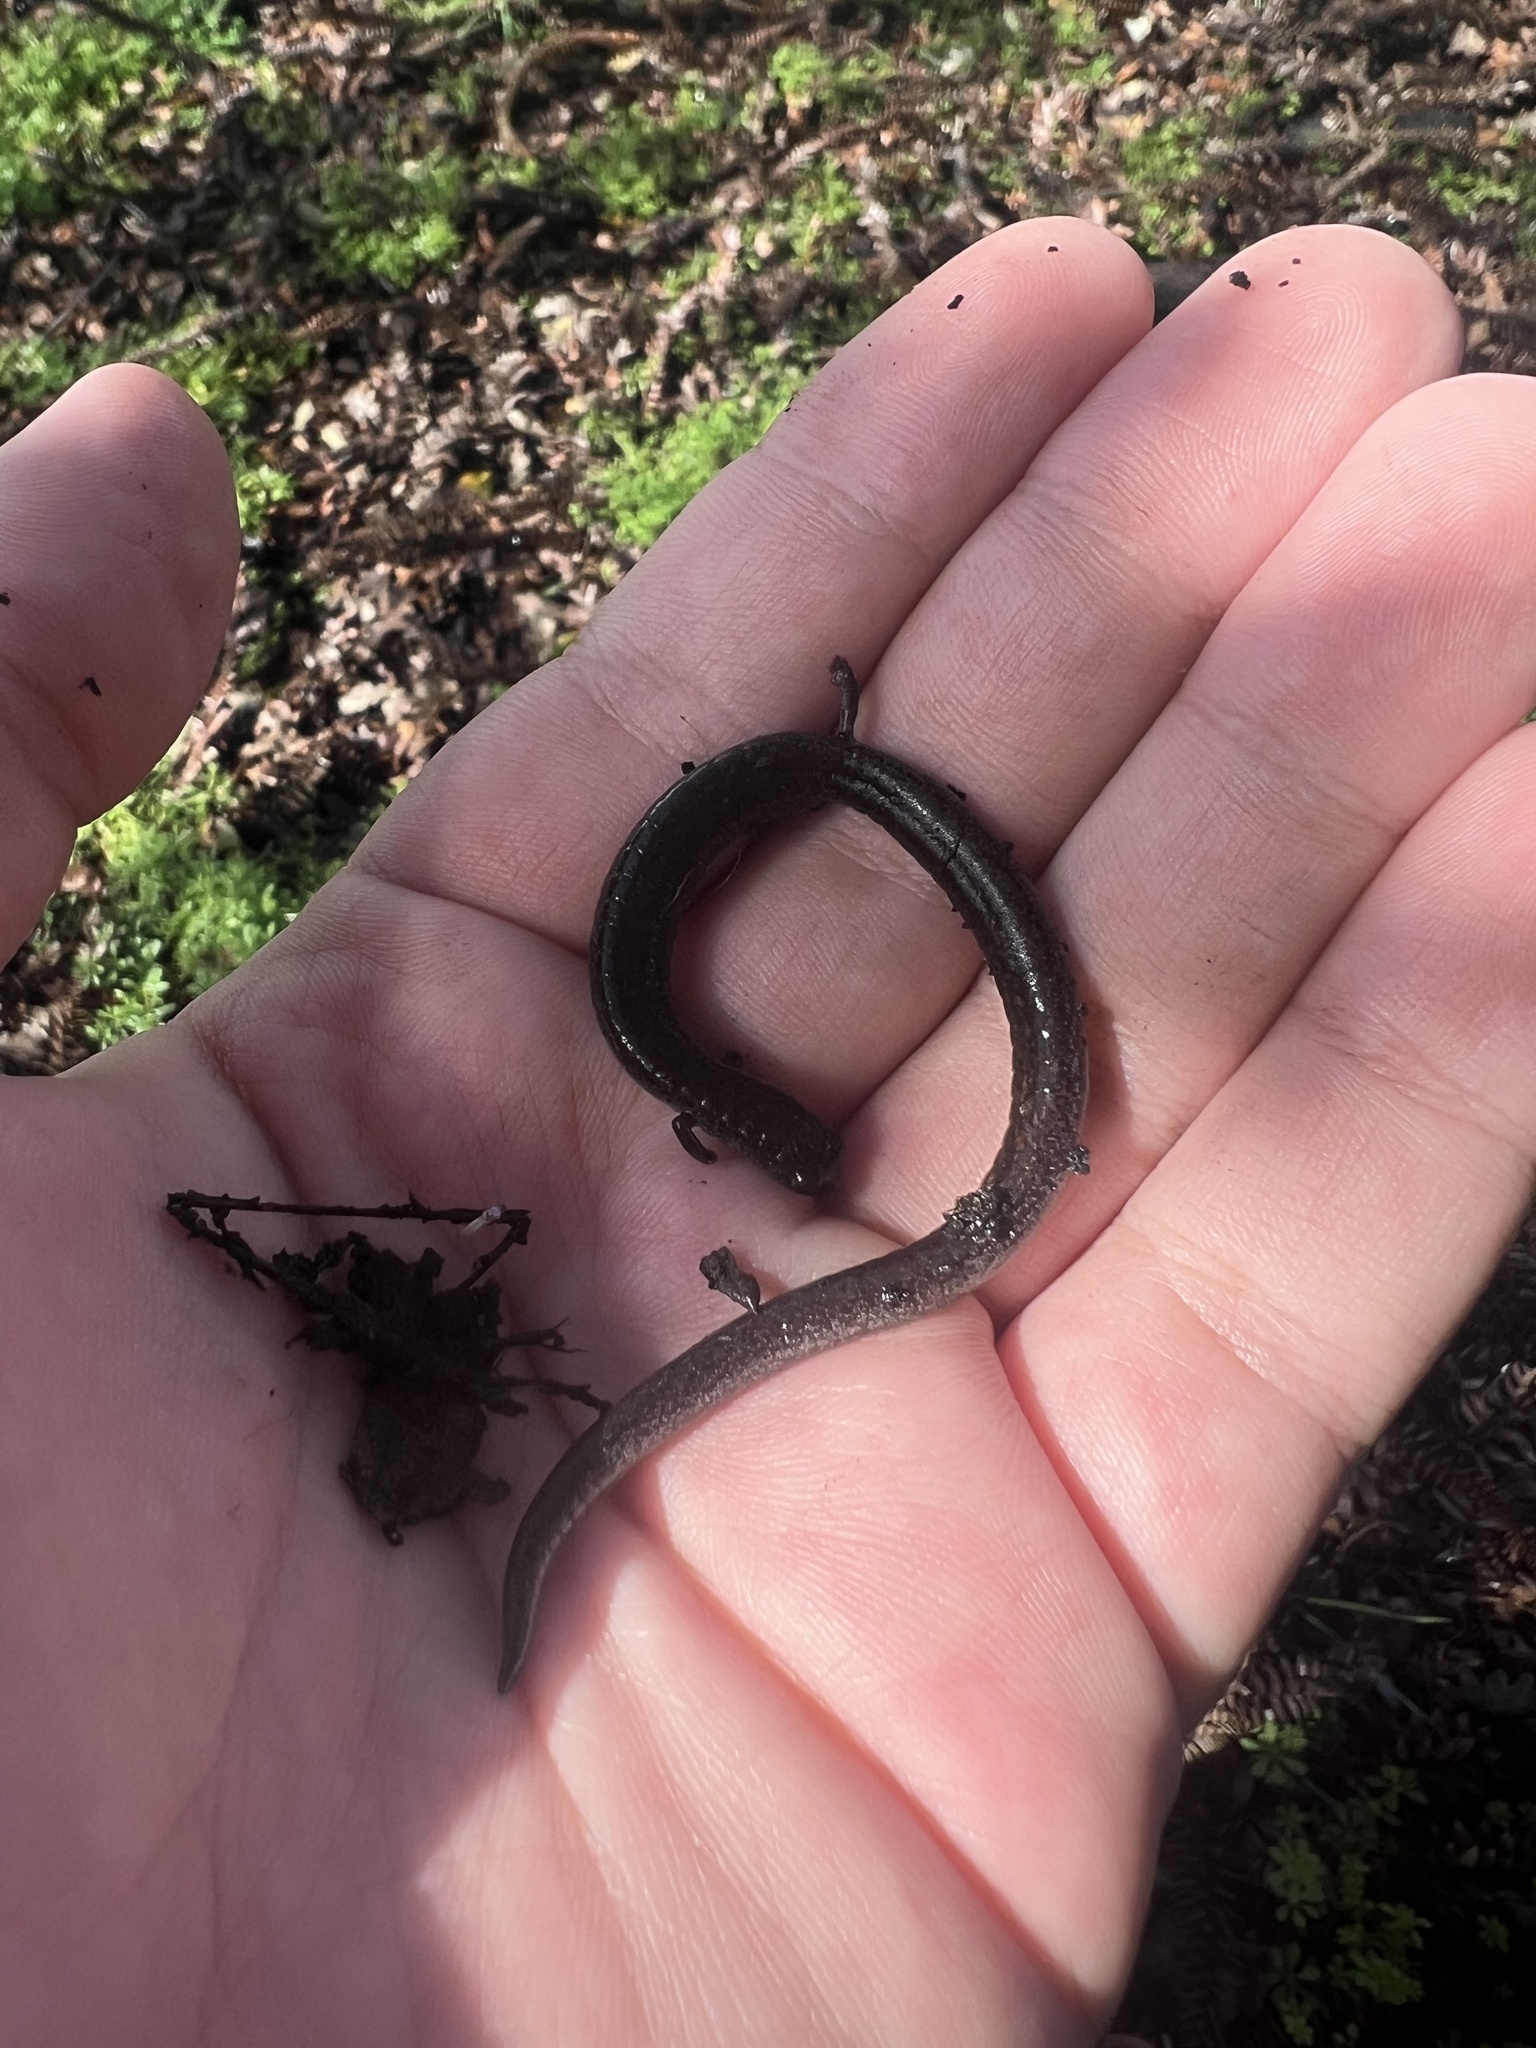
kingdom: Animalia
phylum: Chordata
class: Amphibia
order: Caudata
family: Plethodontidae
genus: Batrachoseps
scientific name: Batrachoseps attenuatus
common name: California slender salamander
